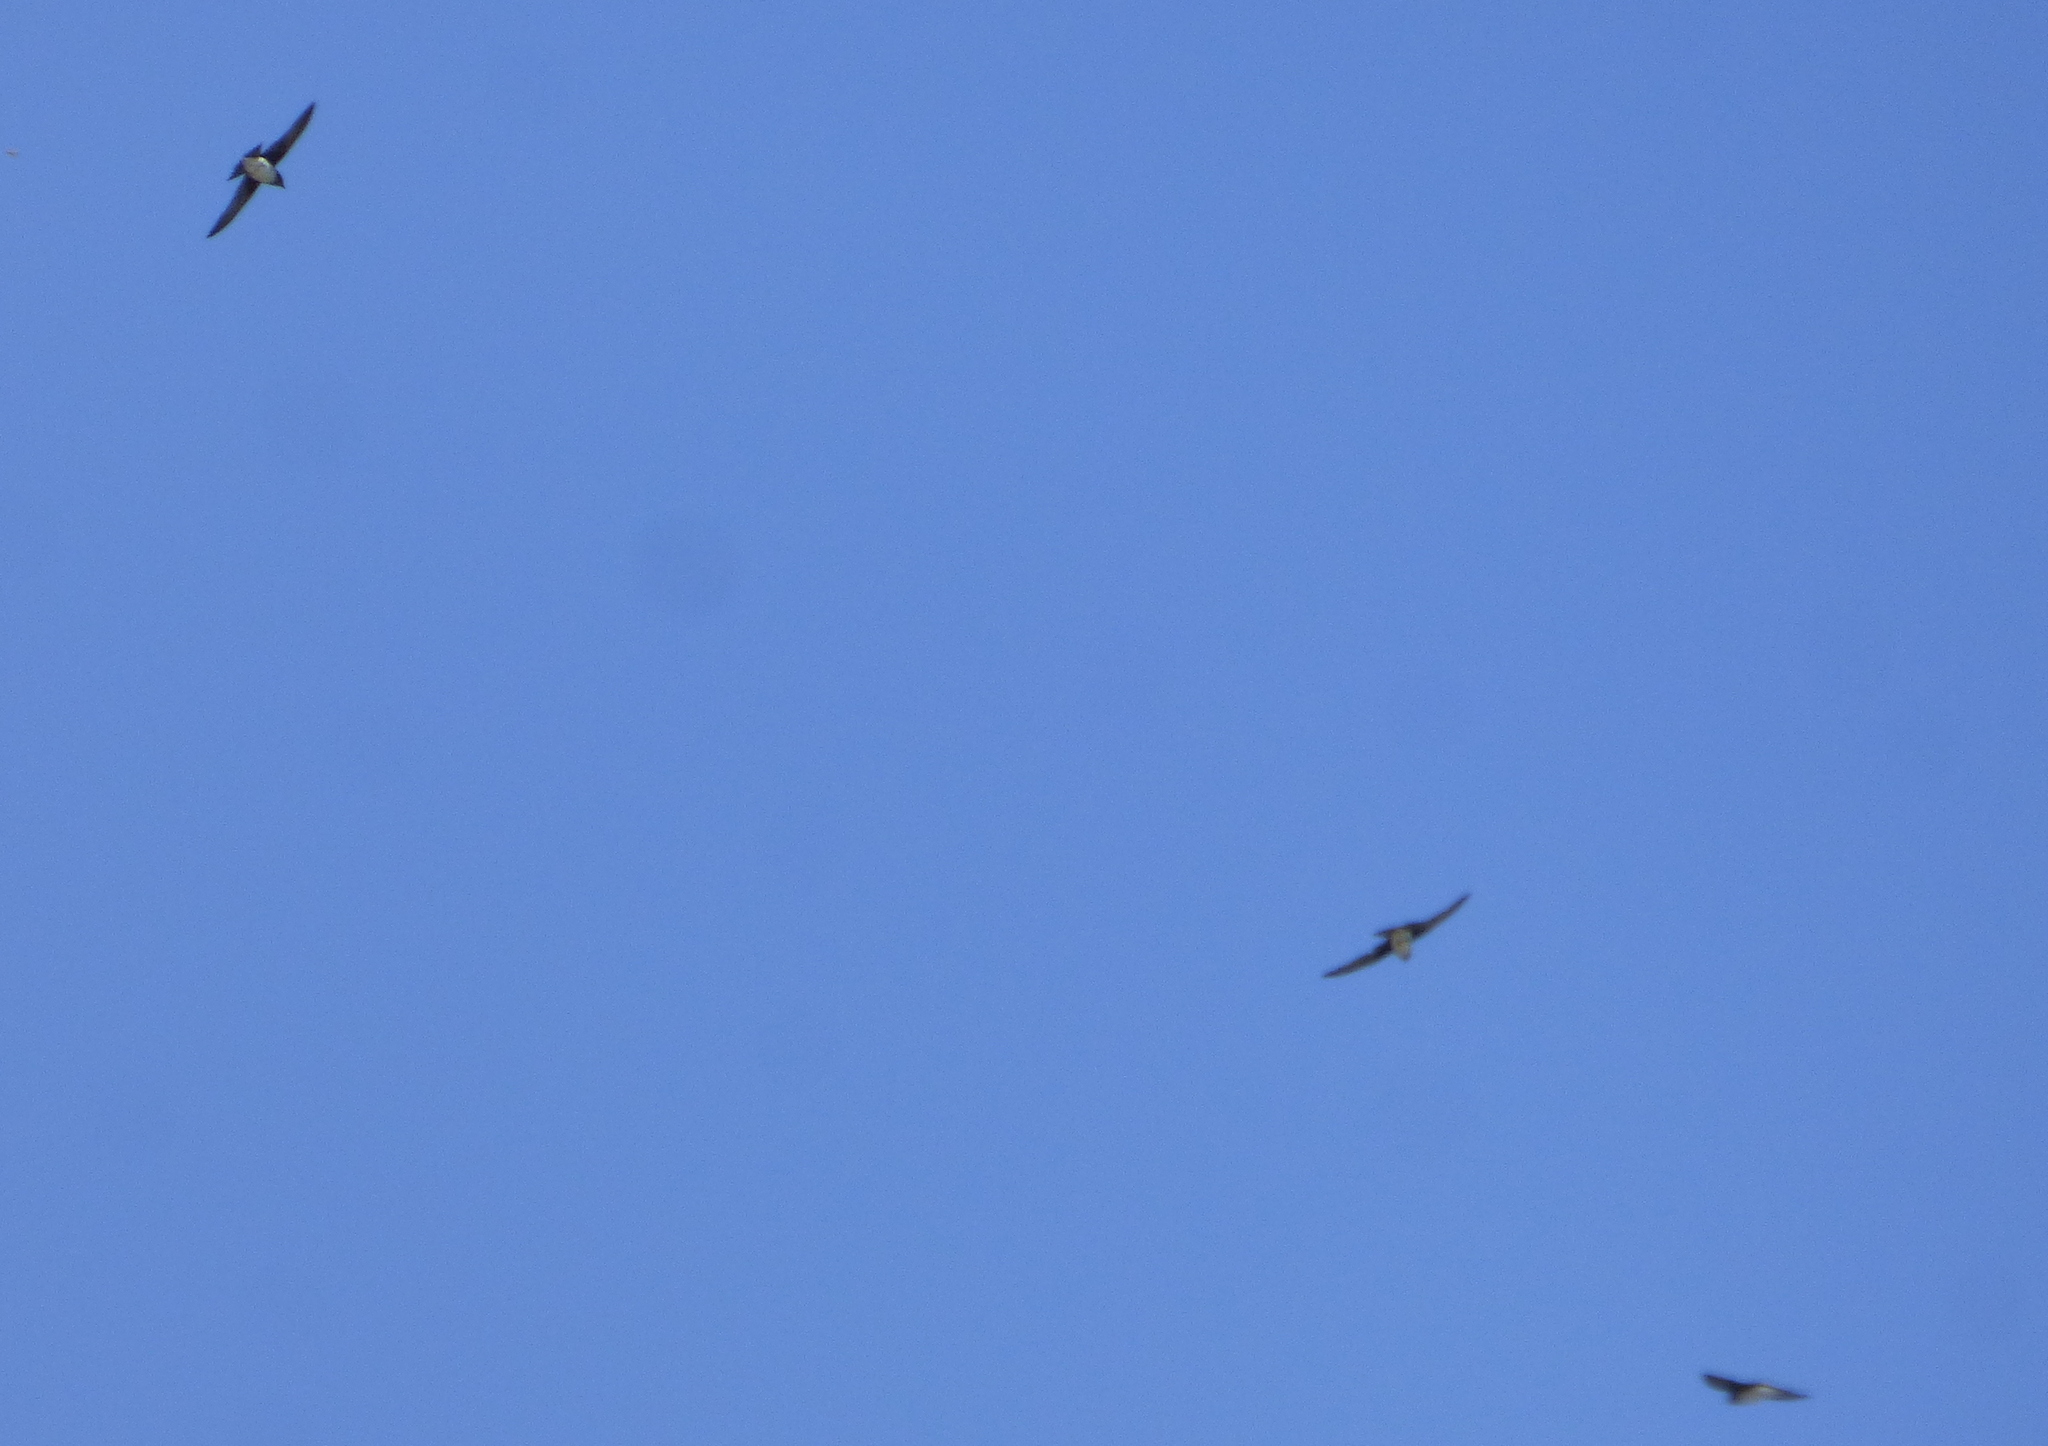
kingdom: Animalia
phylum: Chordata
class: Aves
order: Passeriformes
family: Hirundinidae
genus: Progne
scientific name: Progne chalybea
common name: Grey-breasted martin
